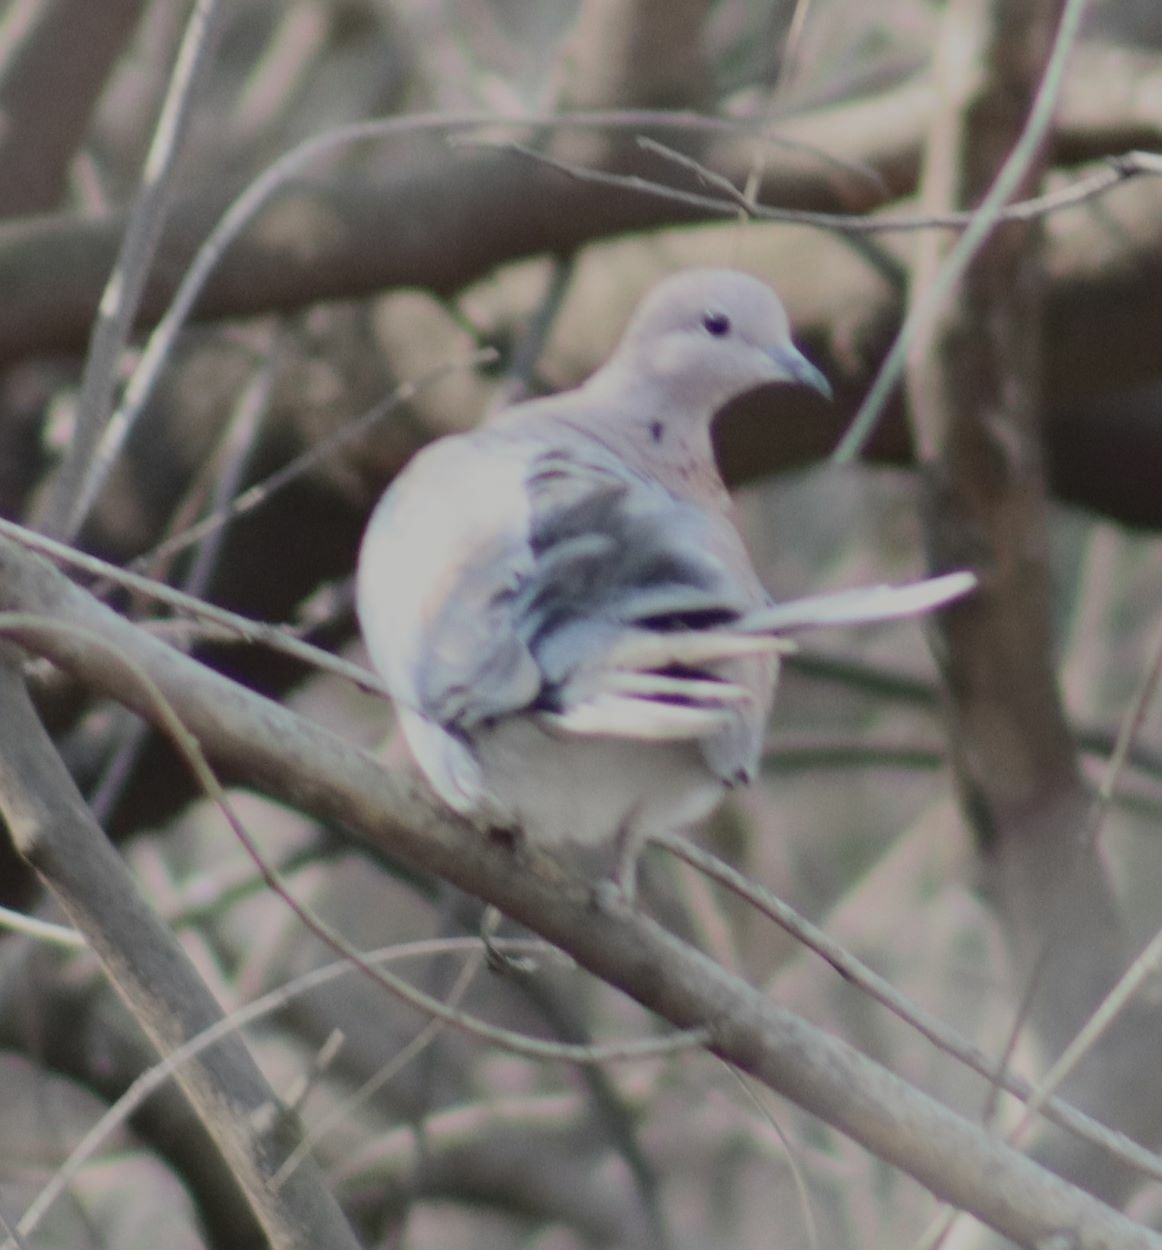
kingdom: Animalia
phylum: Chordata
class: Aves
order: Columbiformes
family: Columbidae
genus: Spilopelia
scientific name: Spilopelia senegalensis
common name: Laughing dove
